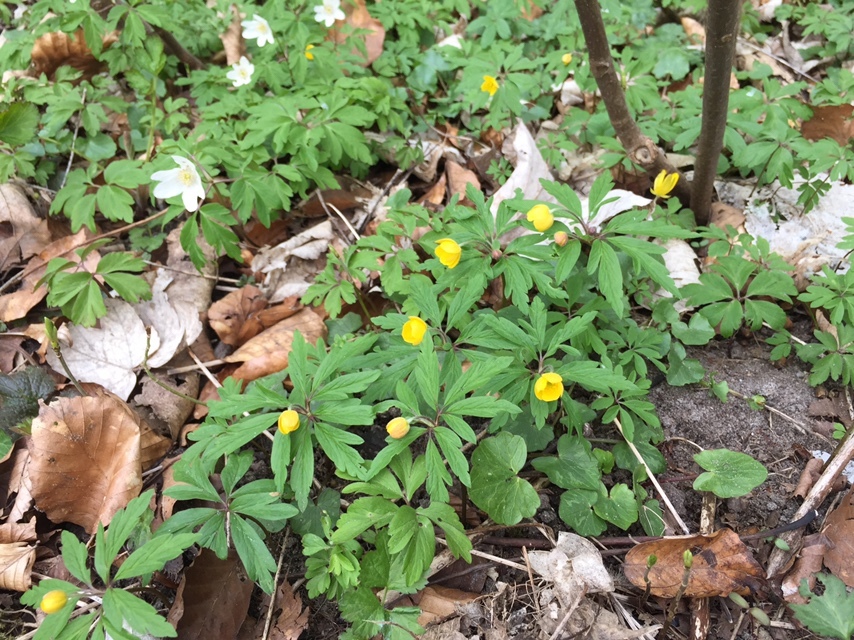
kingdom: Plantae
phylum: Tracheophyta
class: Magnoliopsida
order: Ranunculales
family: Ranunculaceae
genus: Anemone
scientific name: Anemone ranunculoides
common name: Yellow anemone
